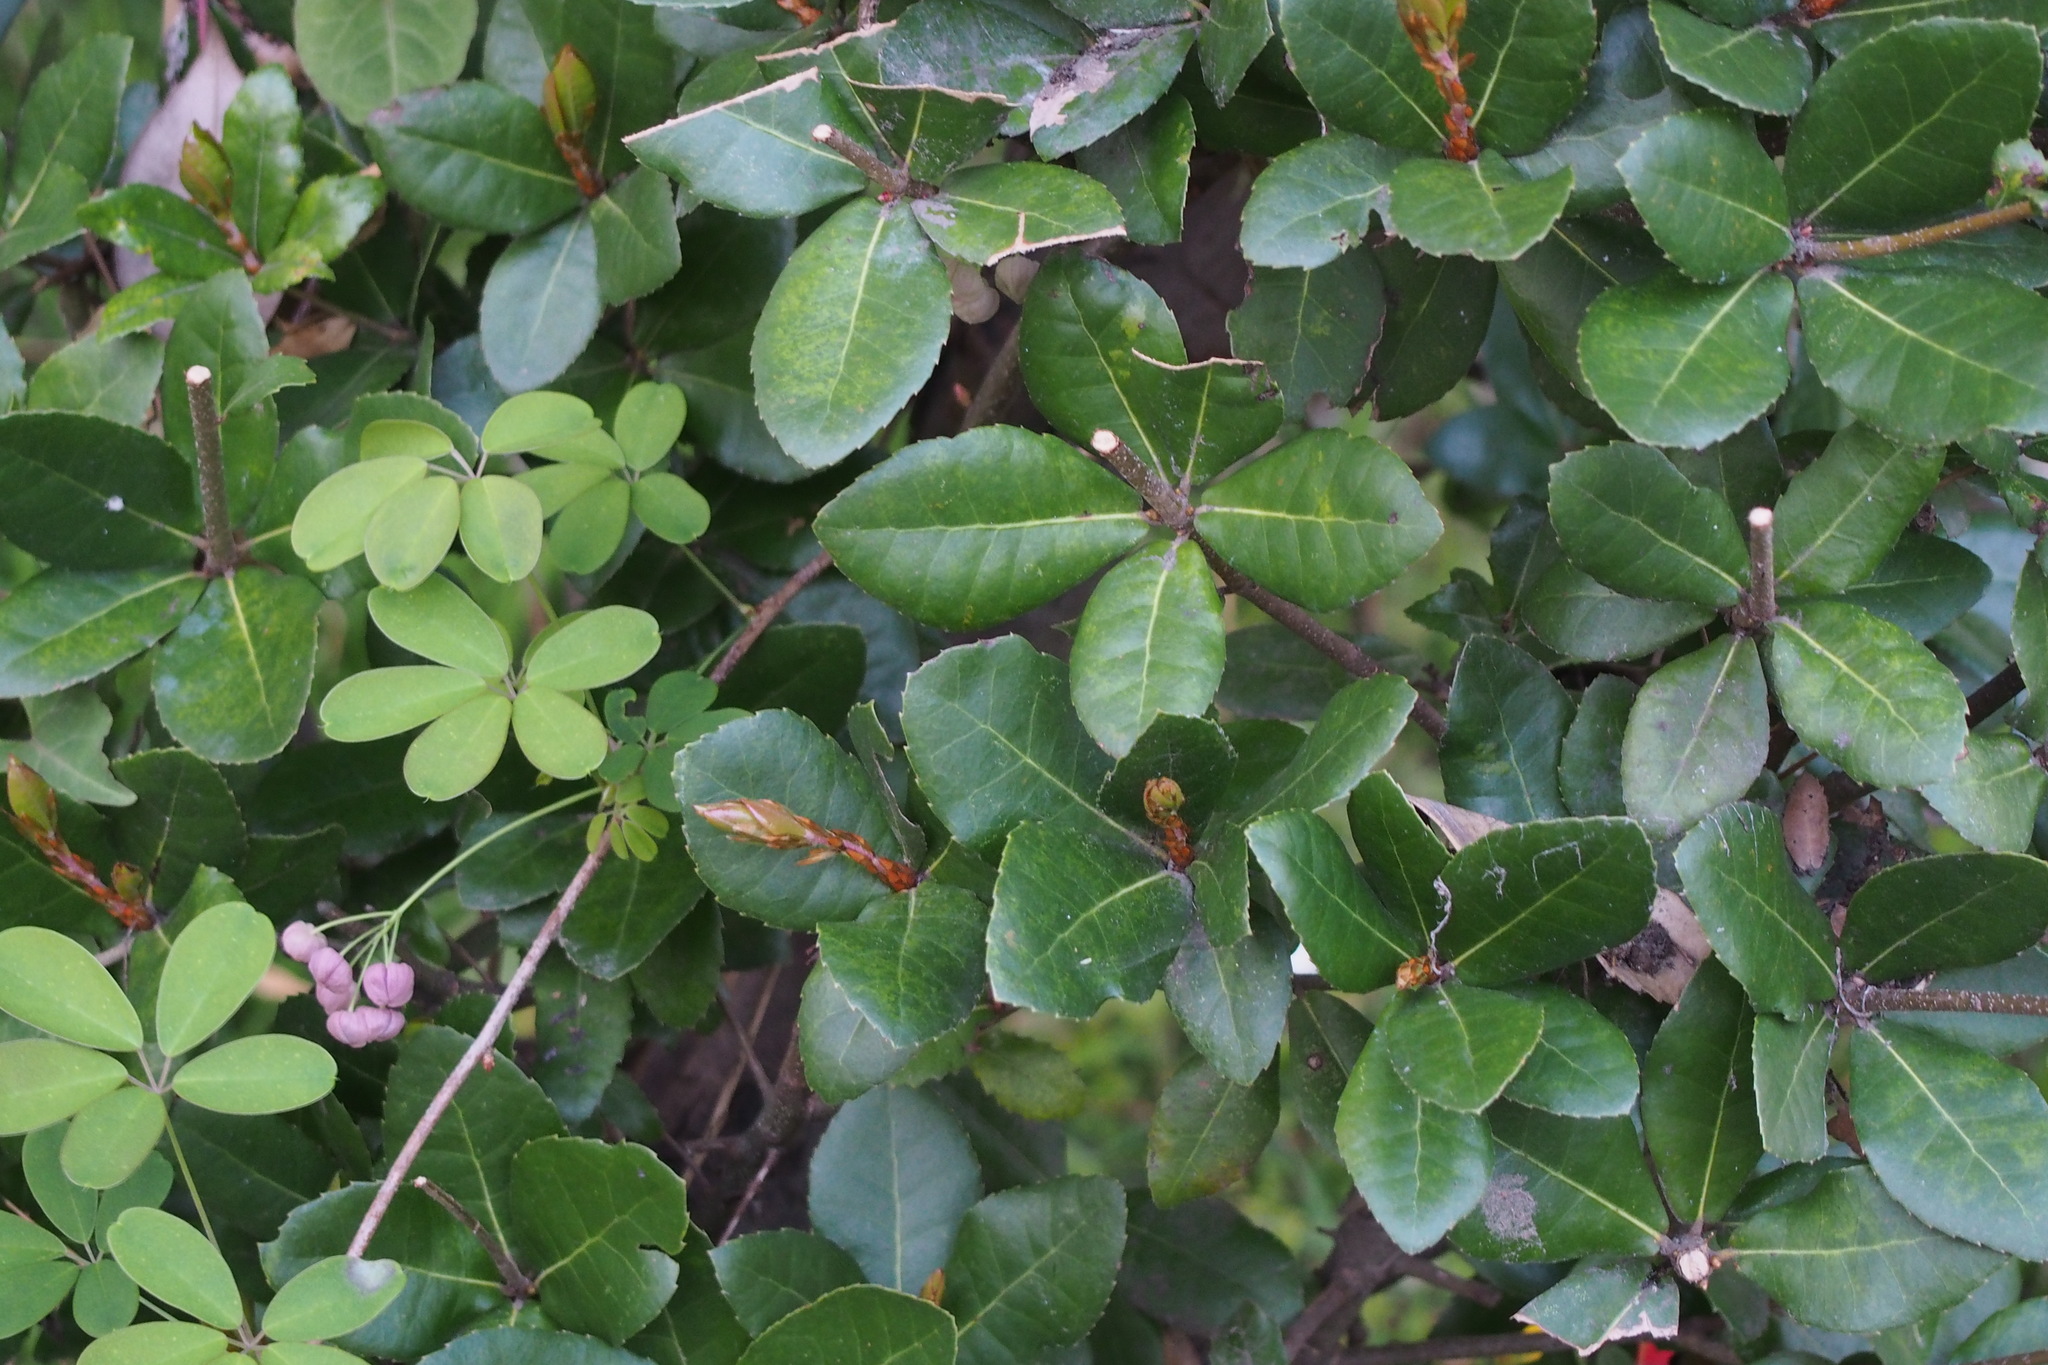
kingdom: Plantae
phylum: Tracheophyta
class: Magnoliopsida
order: Fagales
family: Fagaceae
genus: Quercus
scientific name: Quercus phillyreoides
